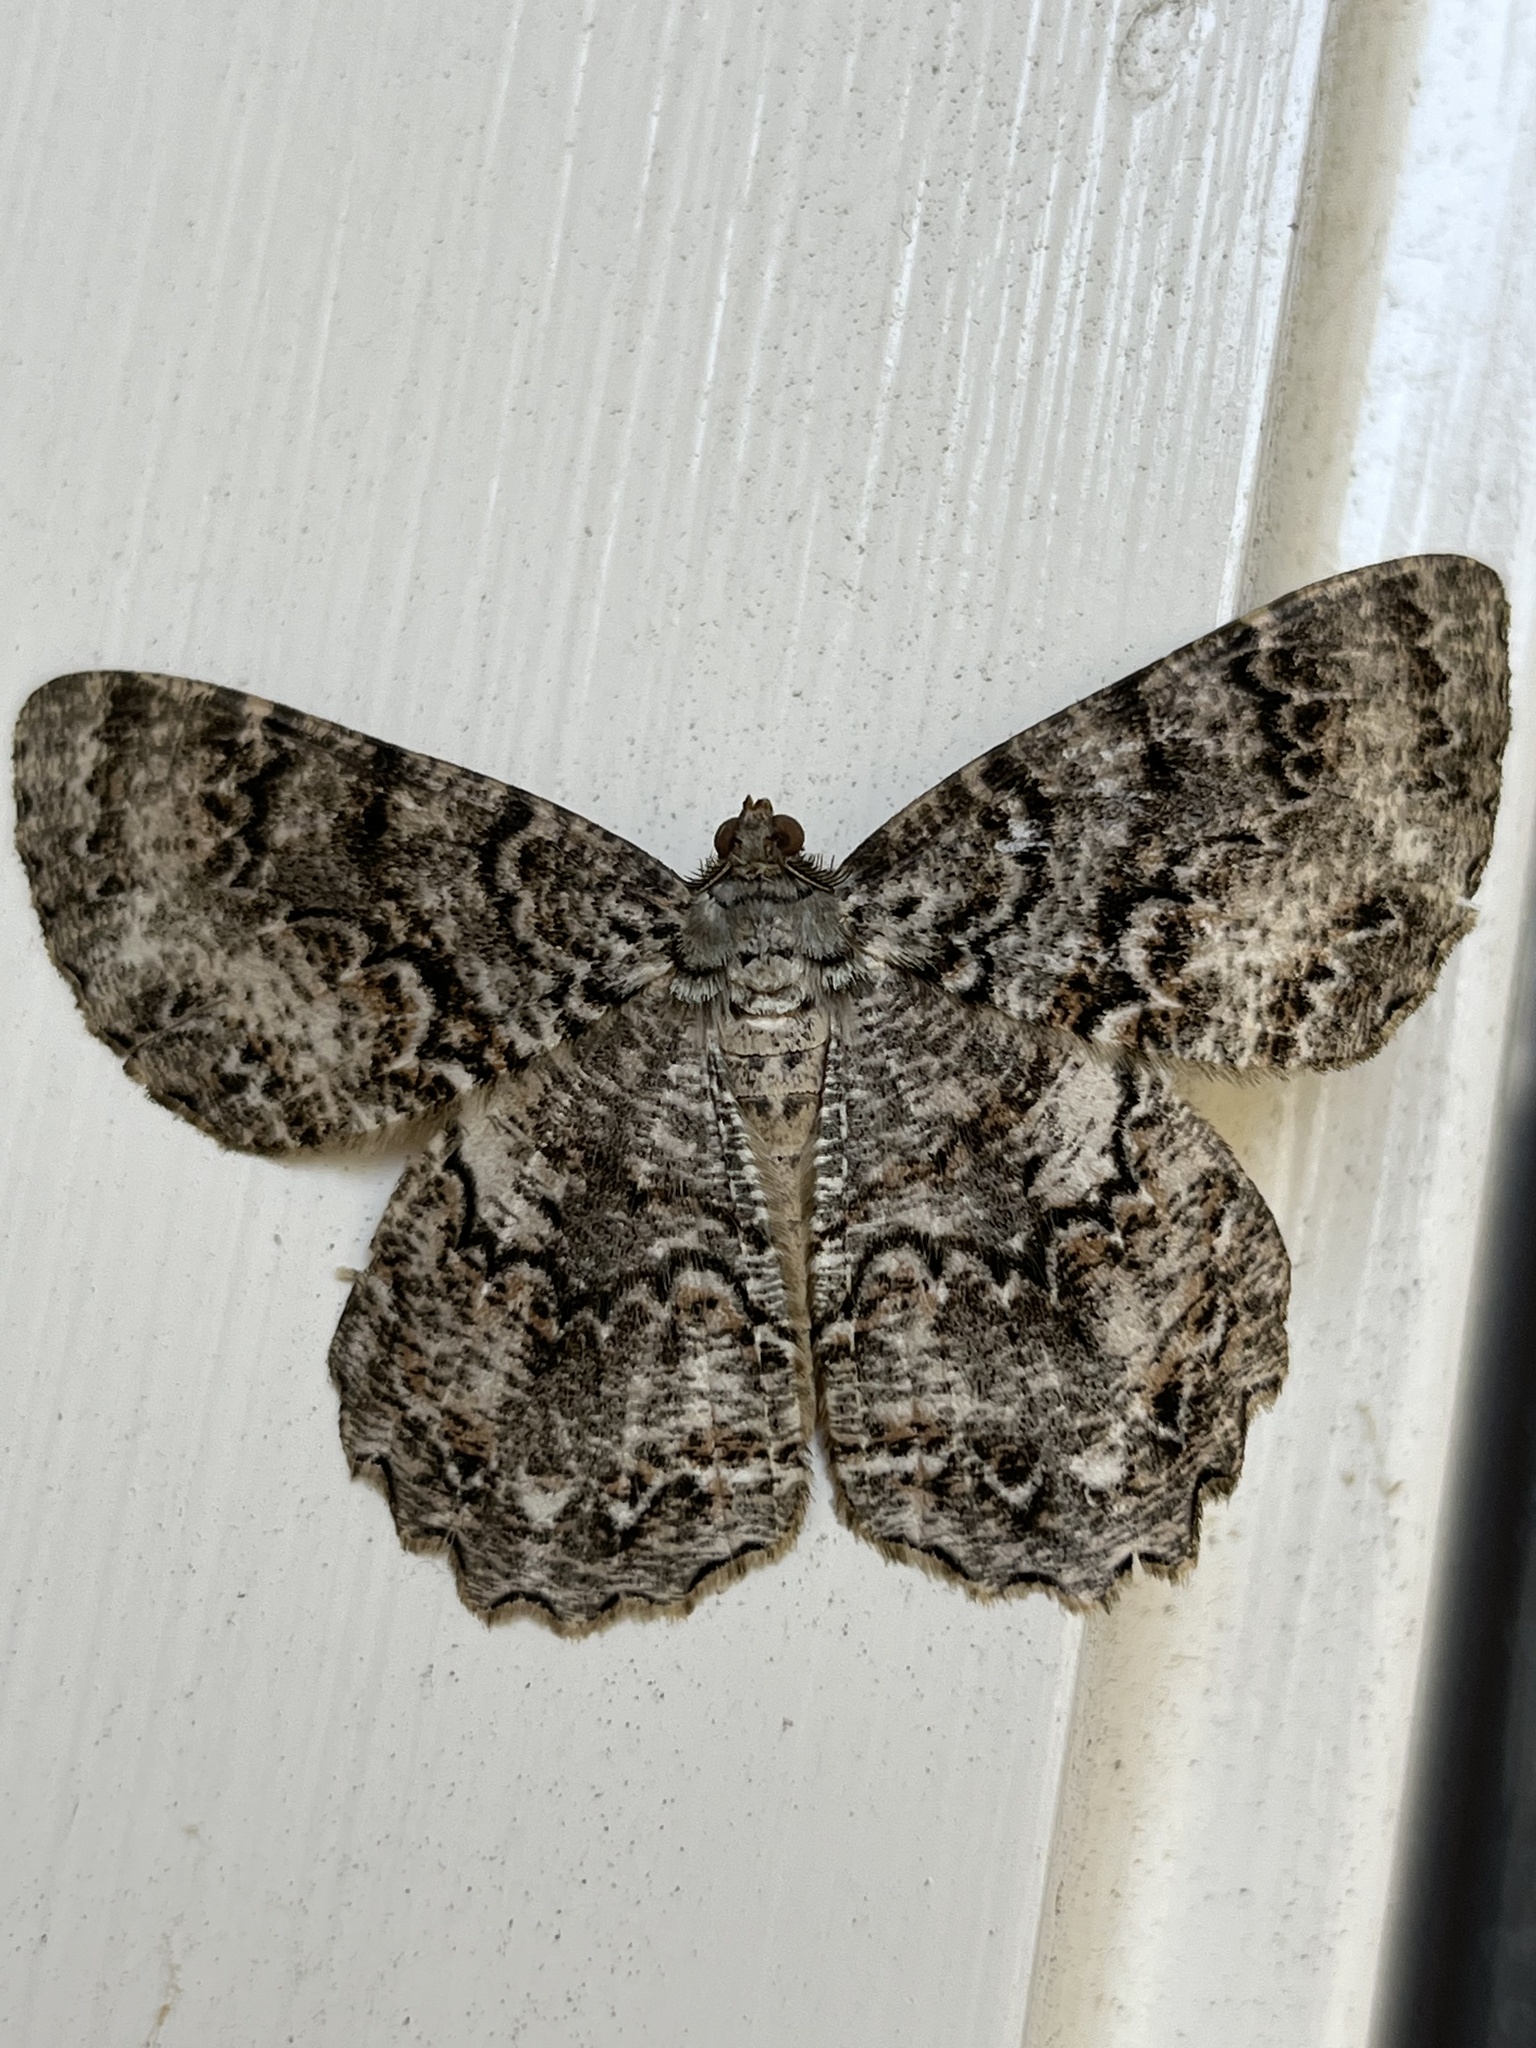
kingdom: Animalia
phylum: Arthropoda
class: Insecta
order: Lepidoptera
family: Geometridae
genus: Epimecis
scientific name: Epimecis hortaria
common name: Tulip-tree beauty
